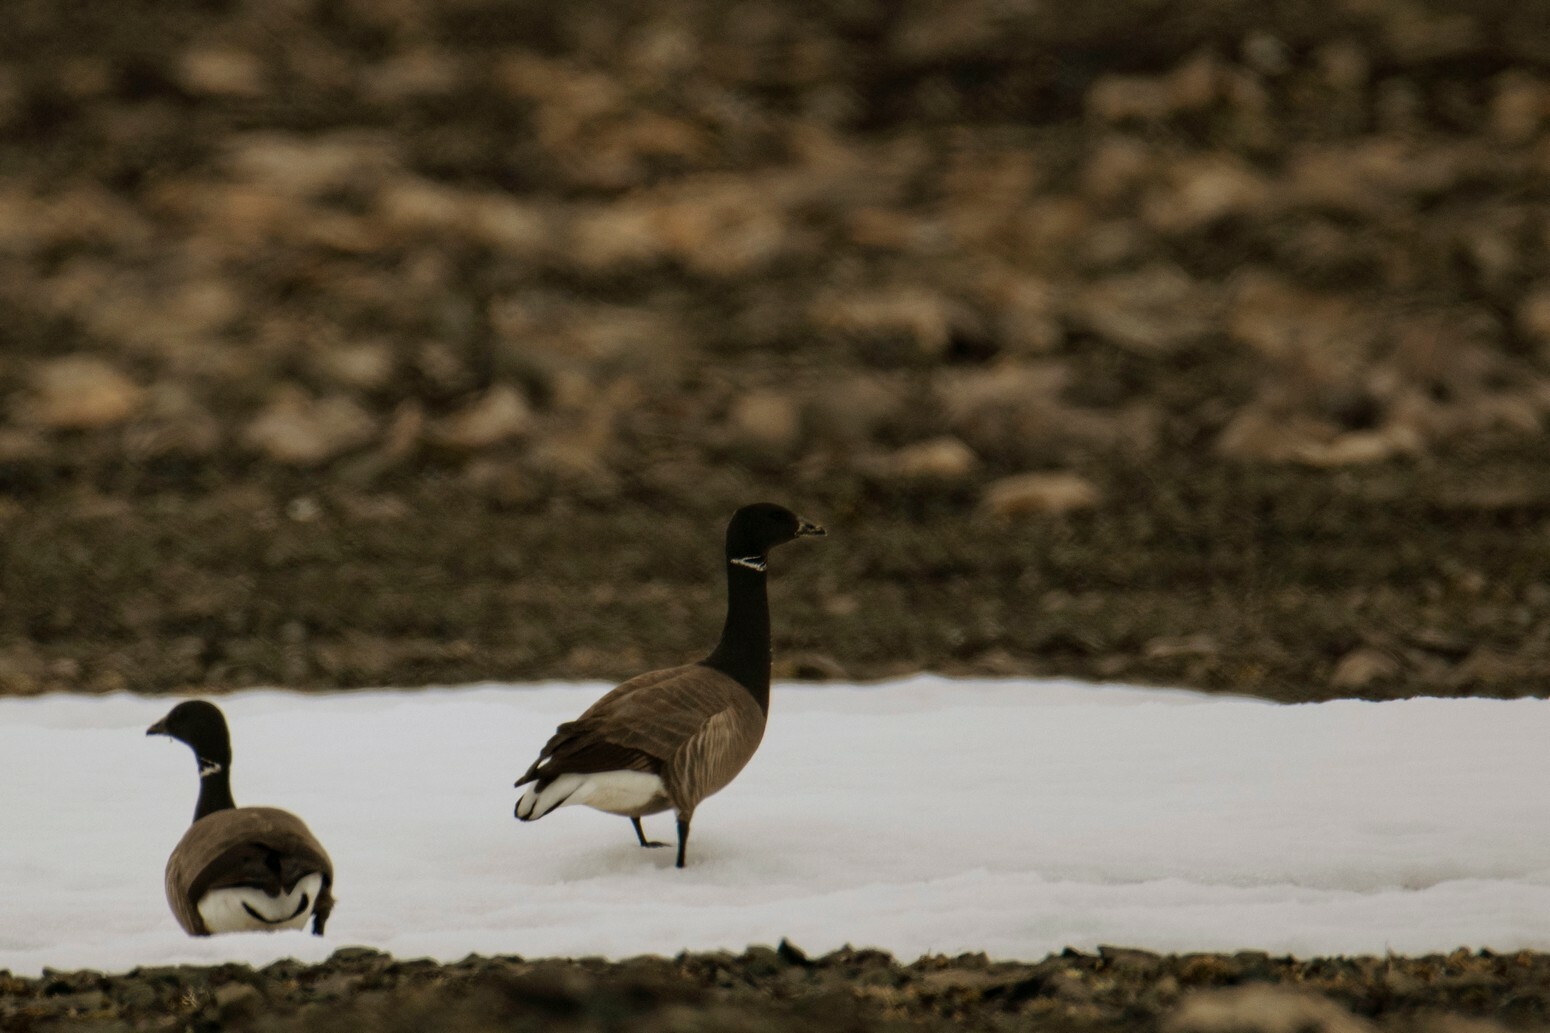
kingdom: Animalia
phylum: Chordata
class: Aves
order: Anseriformes
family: Anatidae
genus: Branta
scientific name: Branta bernicla
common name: Brant goose
